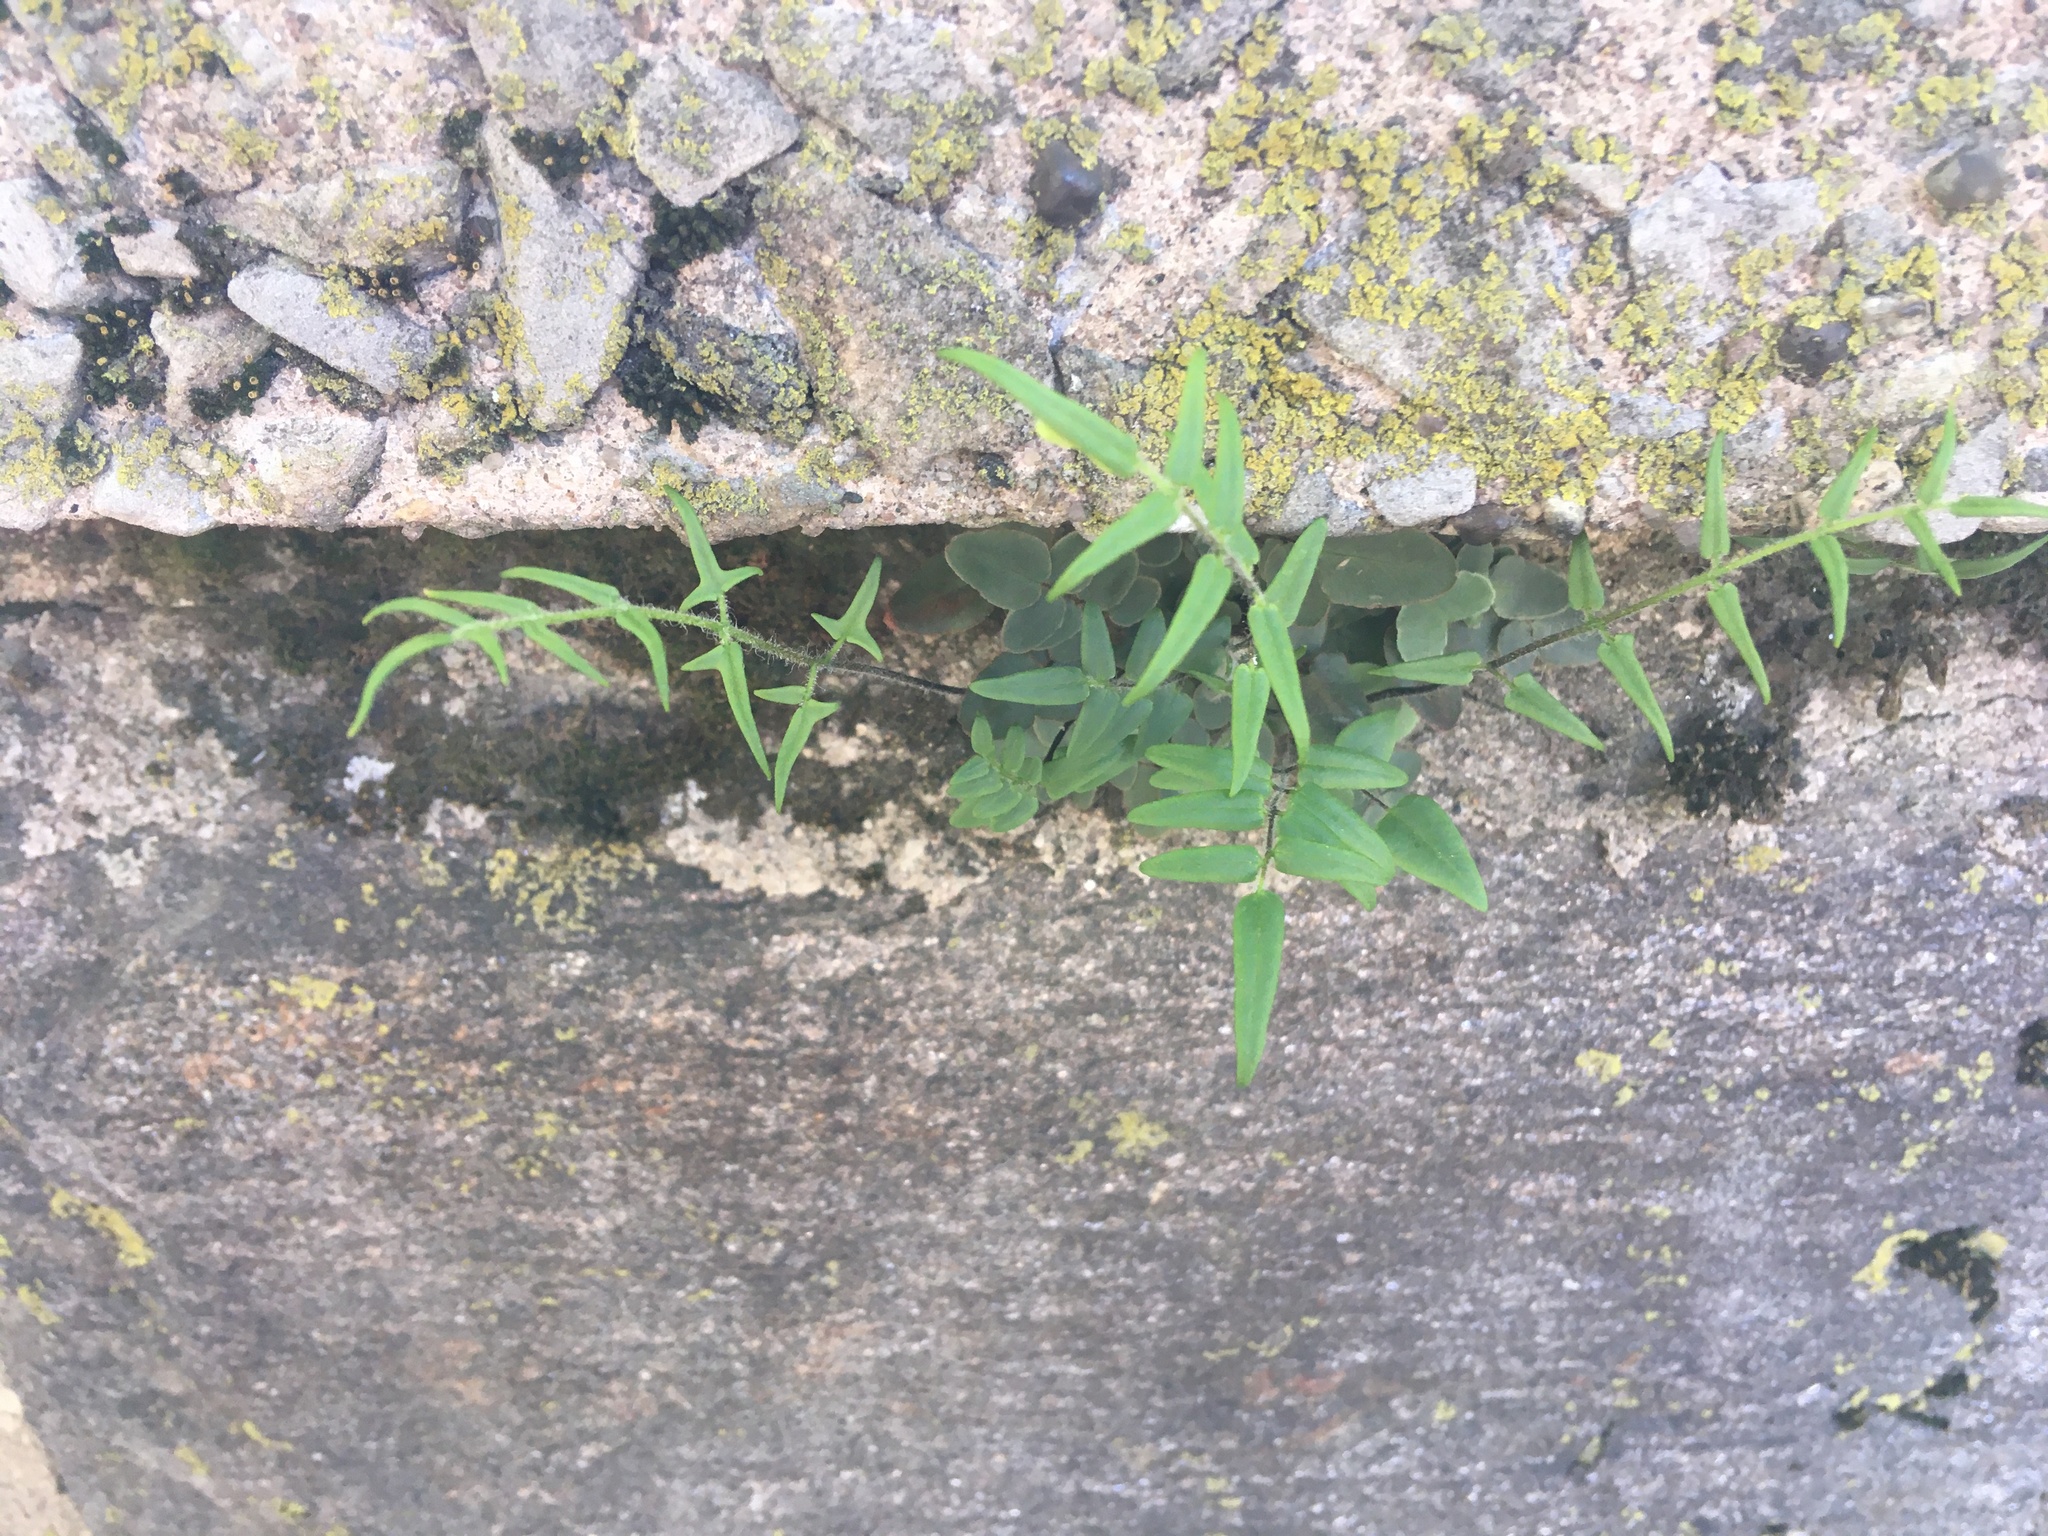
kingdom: Plantae
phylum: Tracheophyta
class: Polypodiopsida
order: Polypodiales
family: Pteridaceae
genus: Pellaea
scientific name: Pellaea atropurpurea
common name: Hairy cliffbrake
